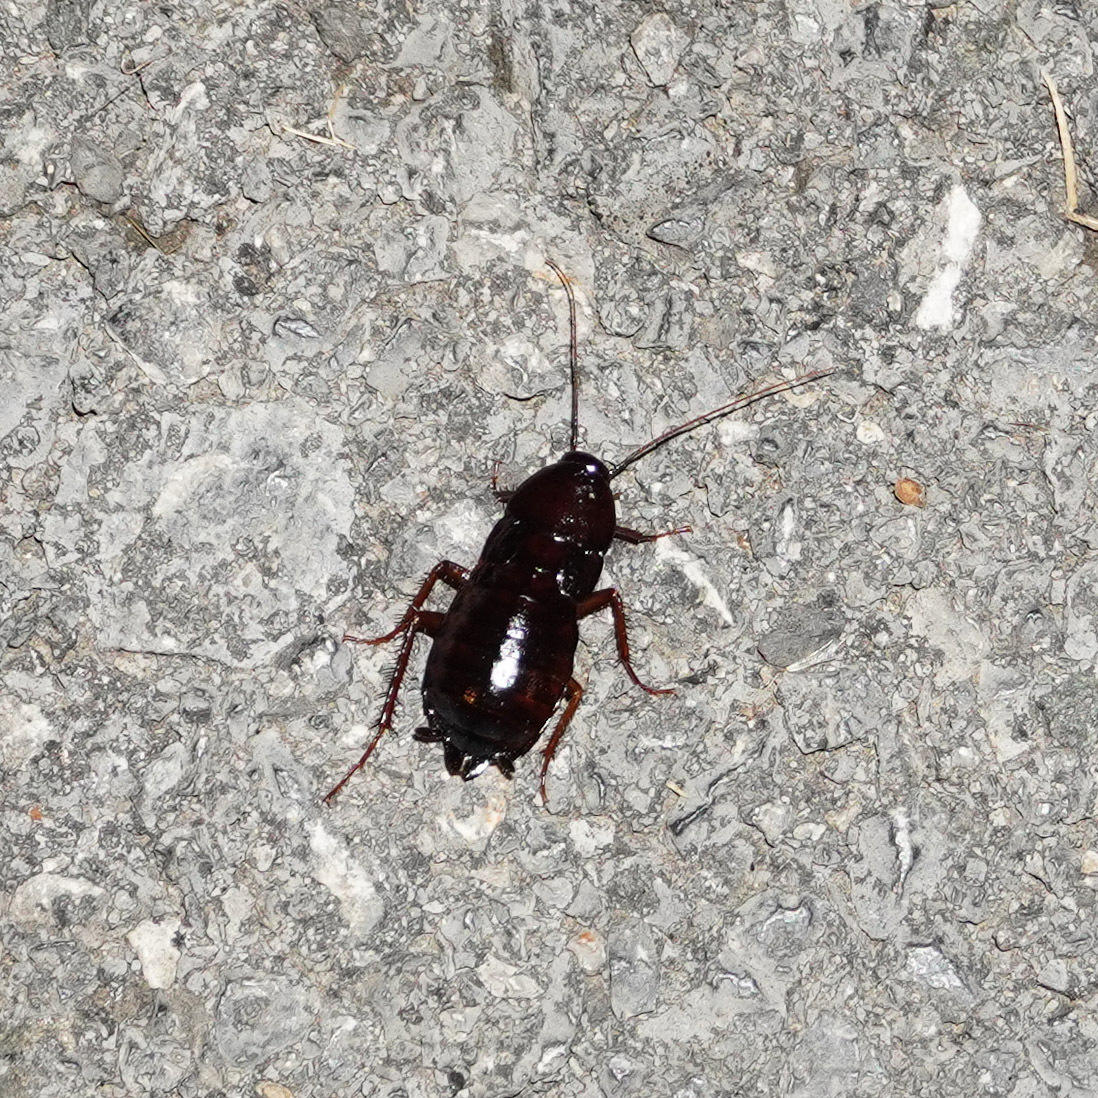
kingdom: Animalia
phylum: Arthropoda
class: Insecta
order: Blattodea
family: Blattidae
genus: Blatta
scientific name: Blatta orientalis
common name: Oriental cockroach
